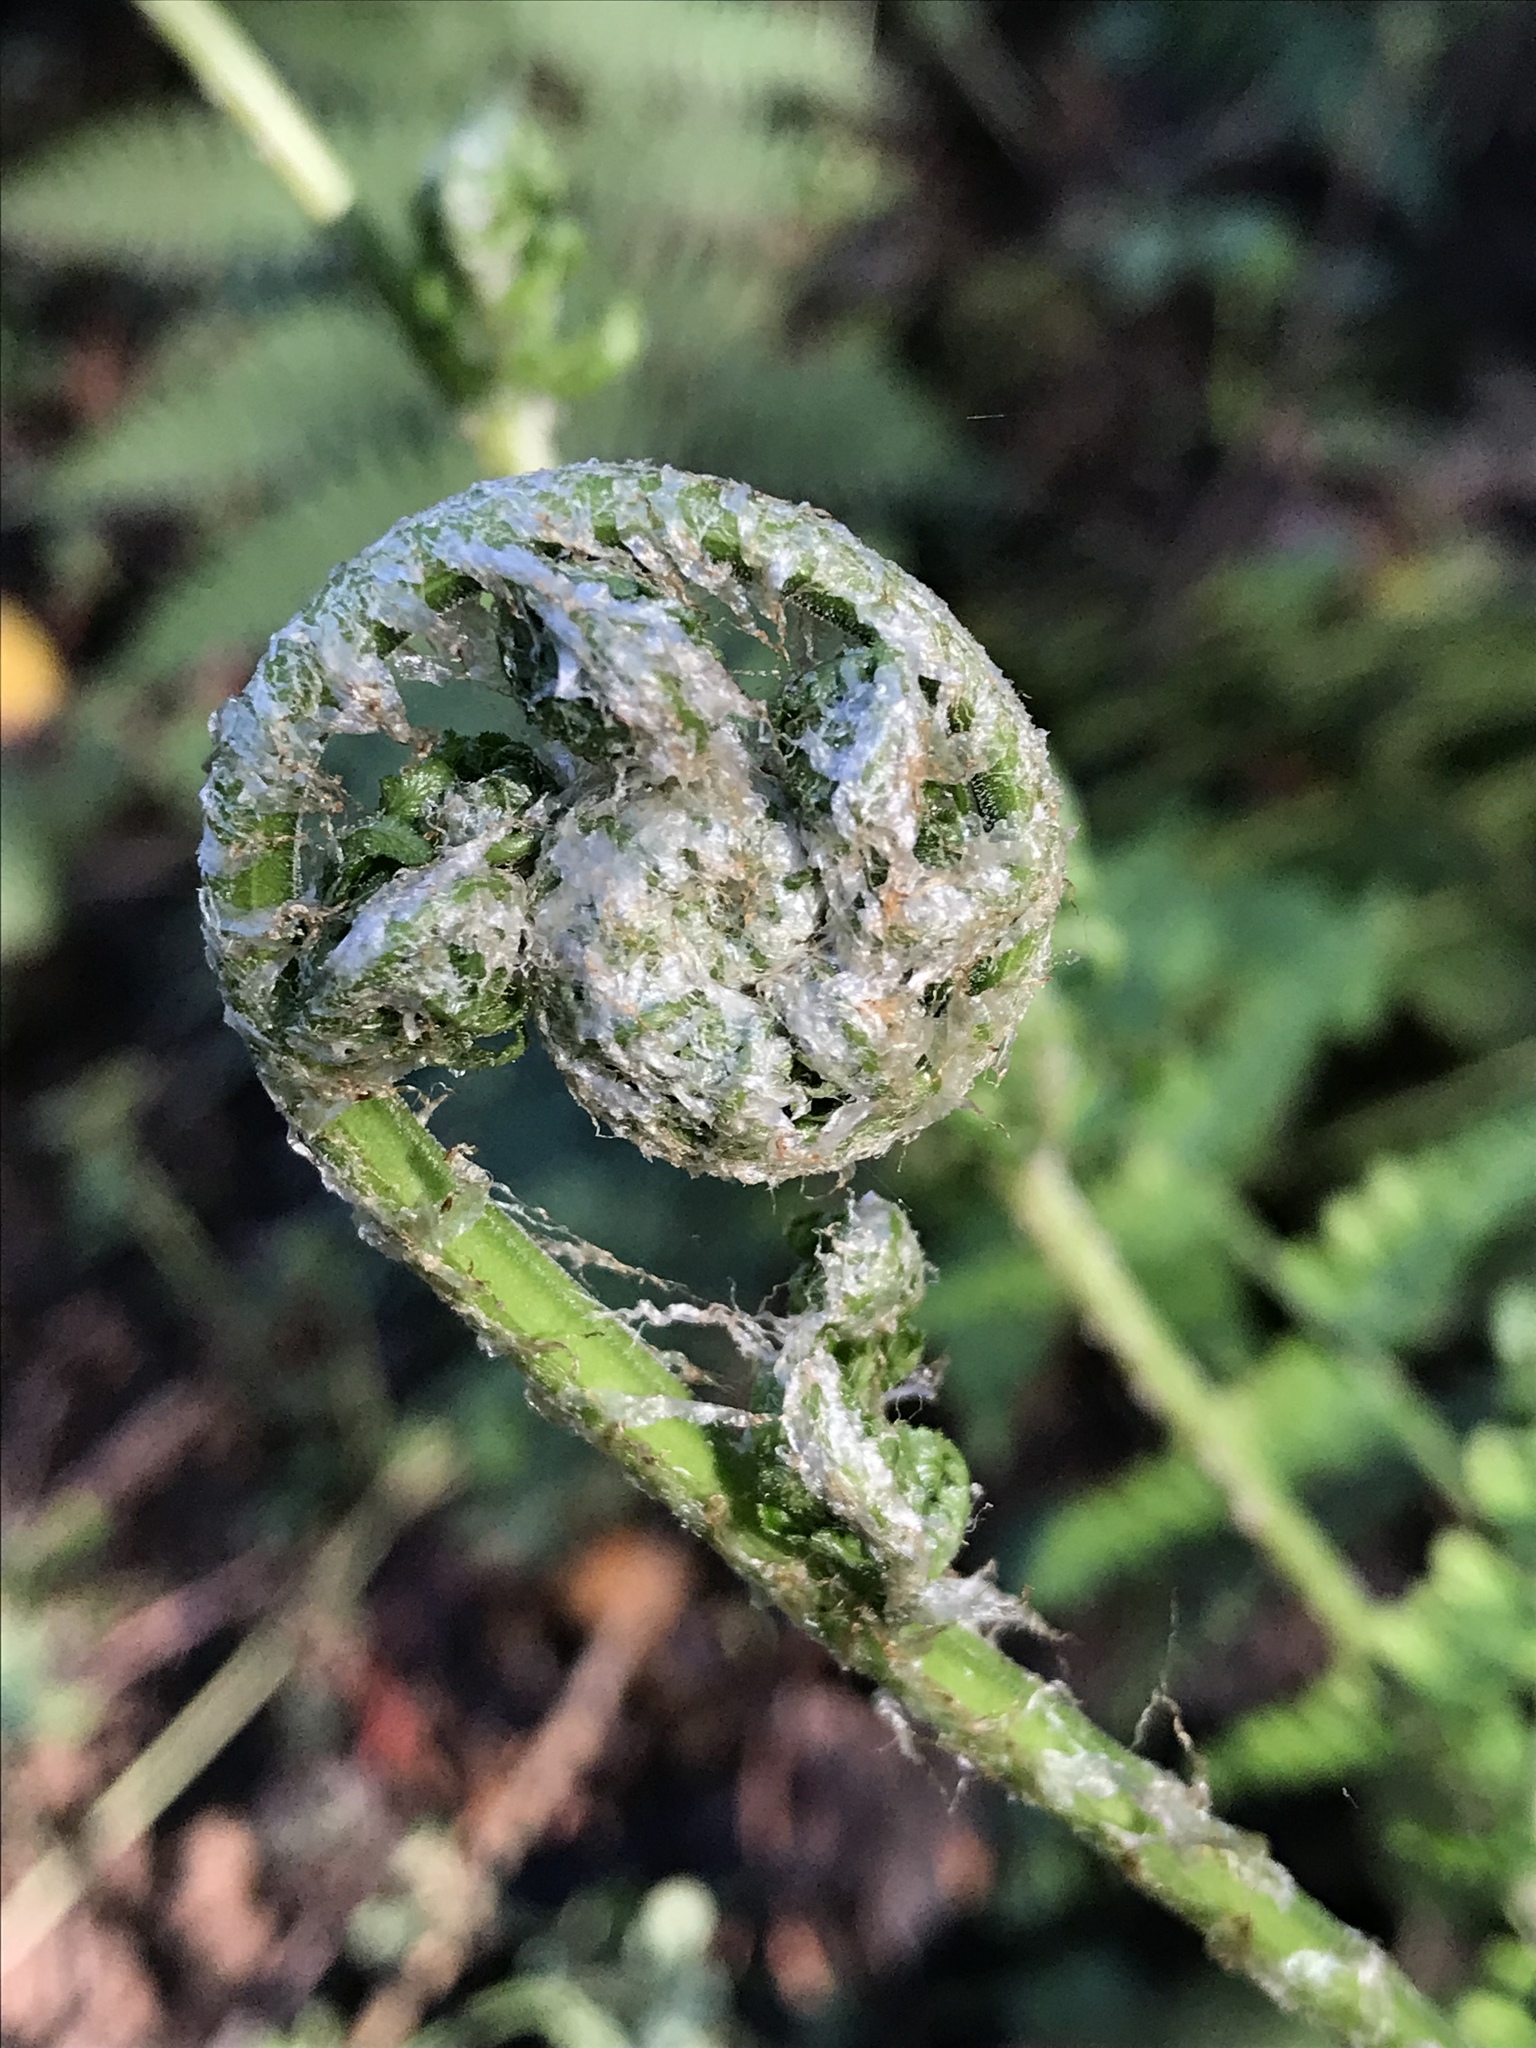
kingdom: Plantae
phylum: Tracheophyta
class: Polypodiopsida
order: Polypodiales
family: Dryopteridaceae
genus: Dryopteris
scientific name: Dryopteris arguta
